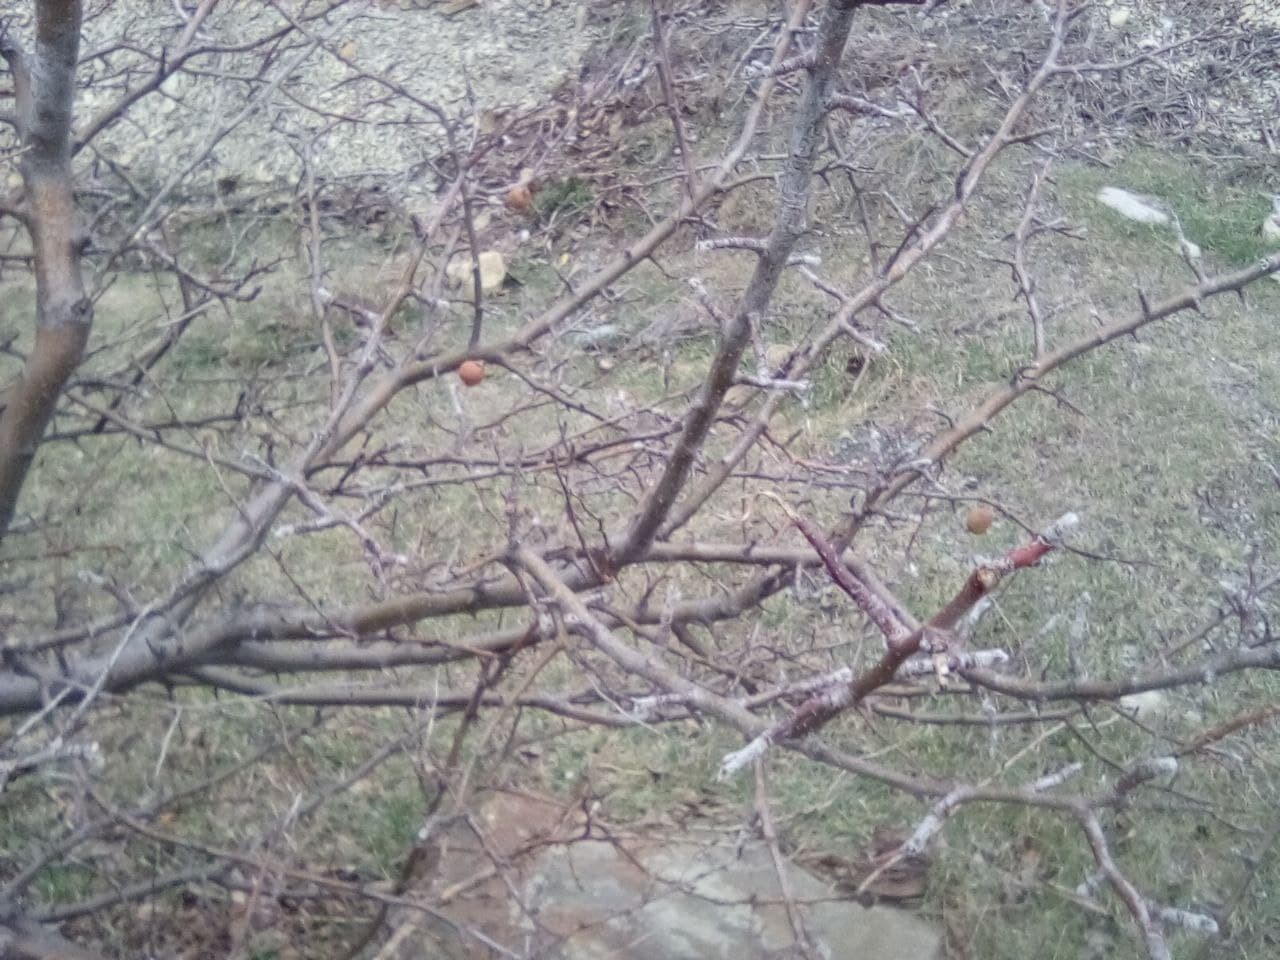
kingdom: Plantae
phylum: Tracheophyta
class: Magnoliopsida
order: Rosales
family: Rosaceae
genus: Mespilus
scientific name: Mespilus germanica
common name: Medlar
